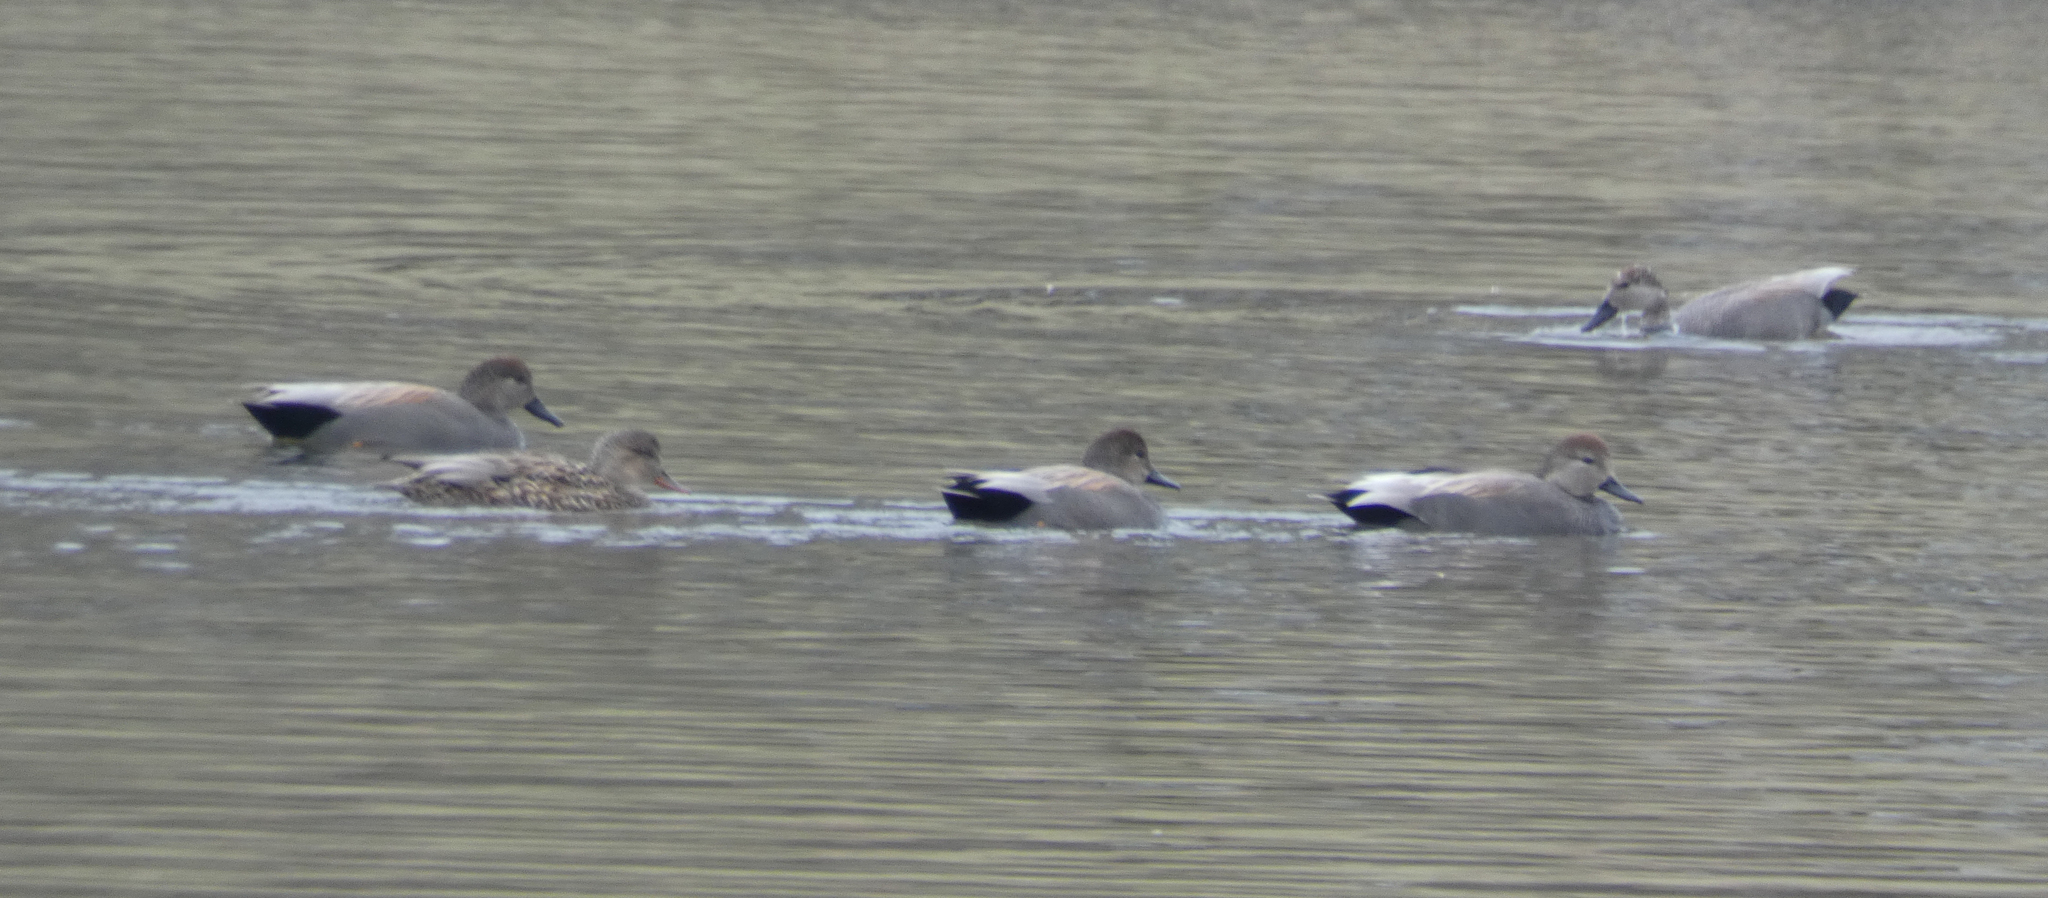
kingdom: Animalia
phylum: Chordata
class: Aves
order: Anseriformes
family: Anatidae
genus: Mareca
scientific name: Mareca strepera
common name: Gadwall
